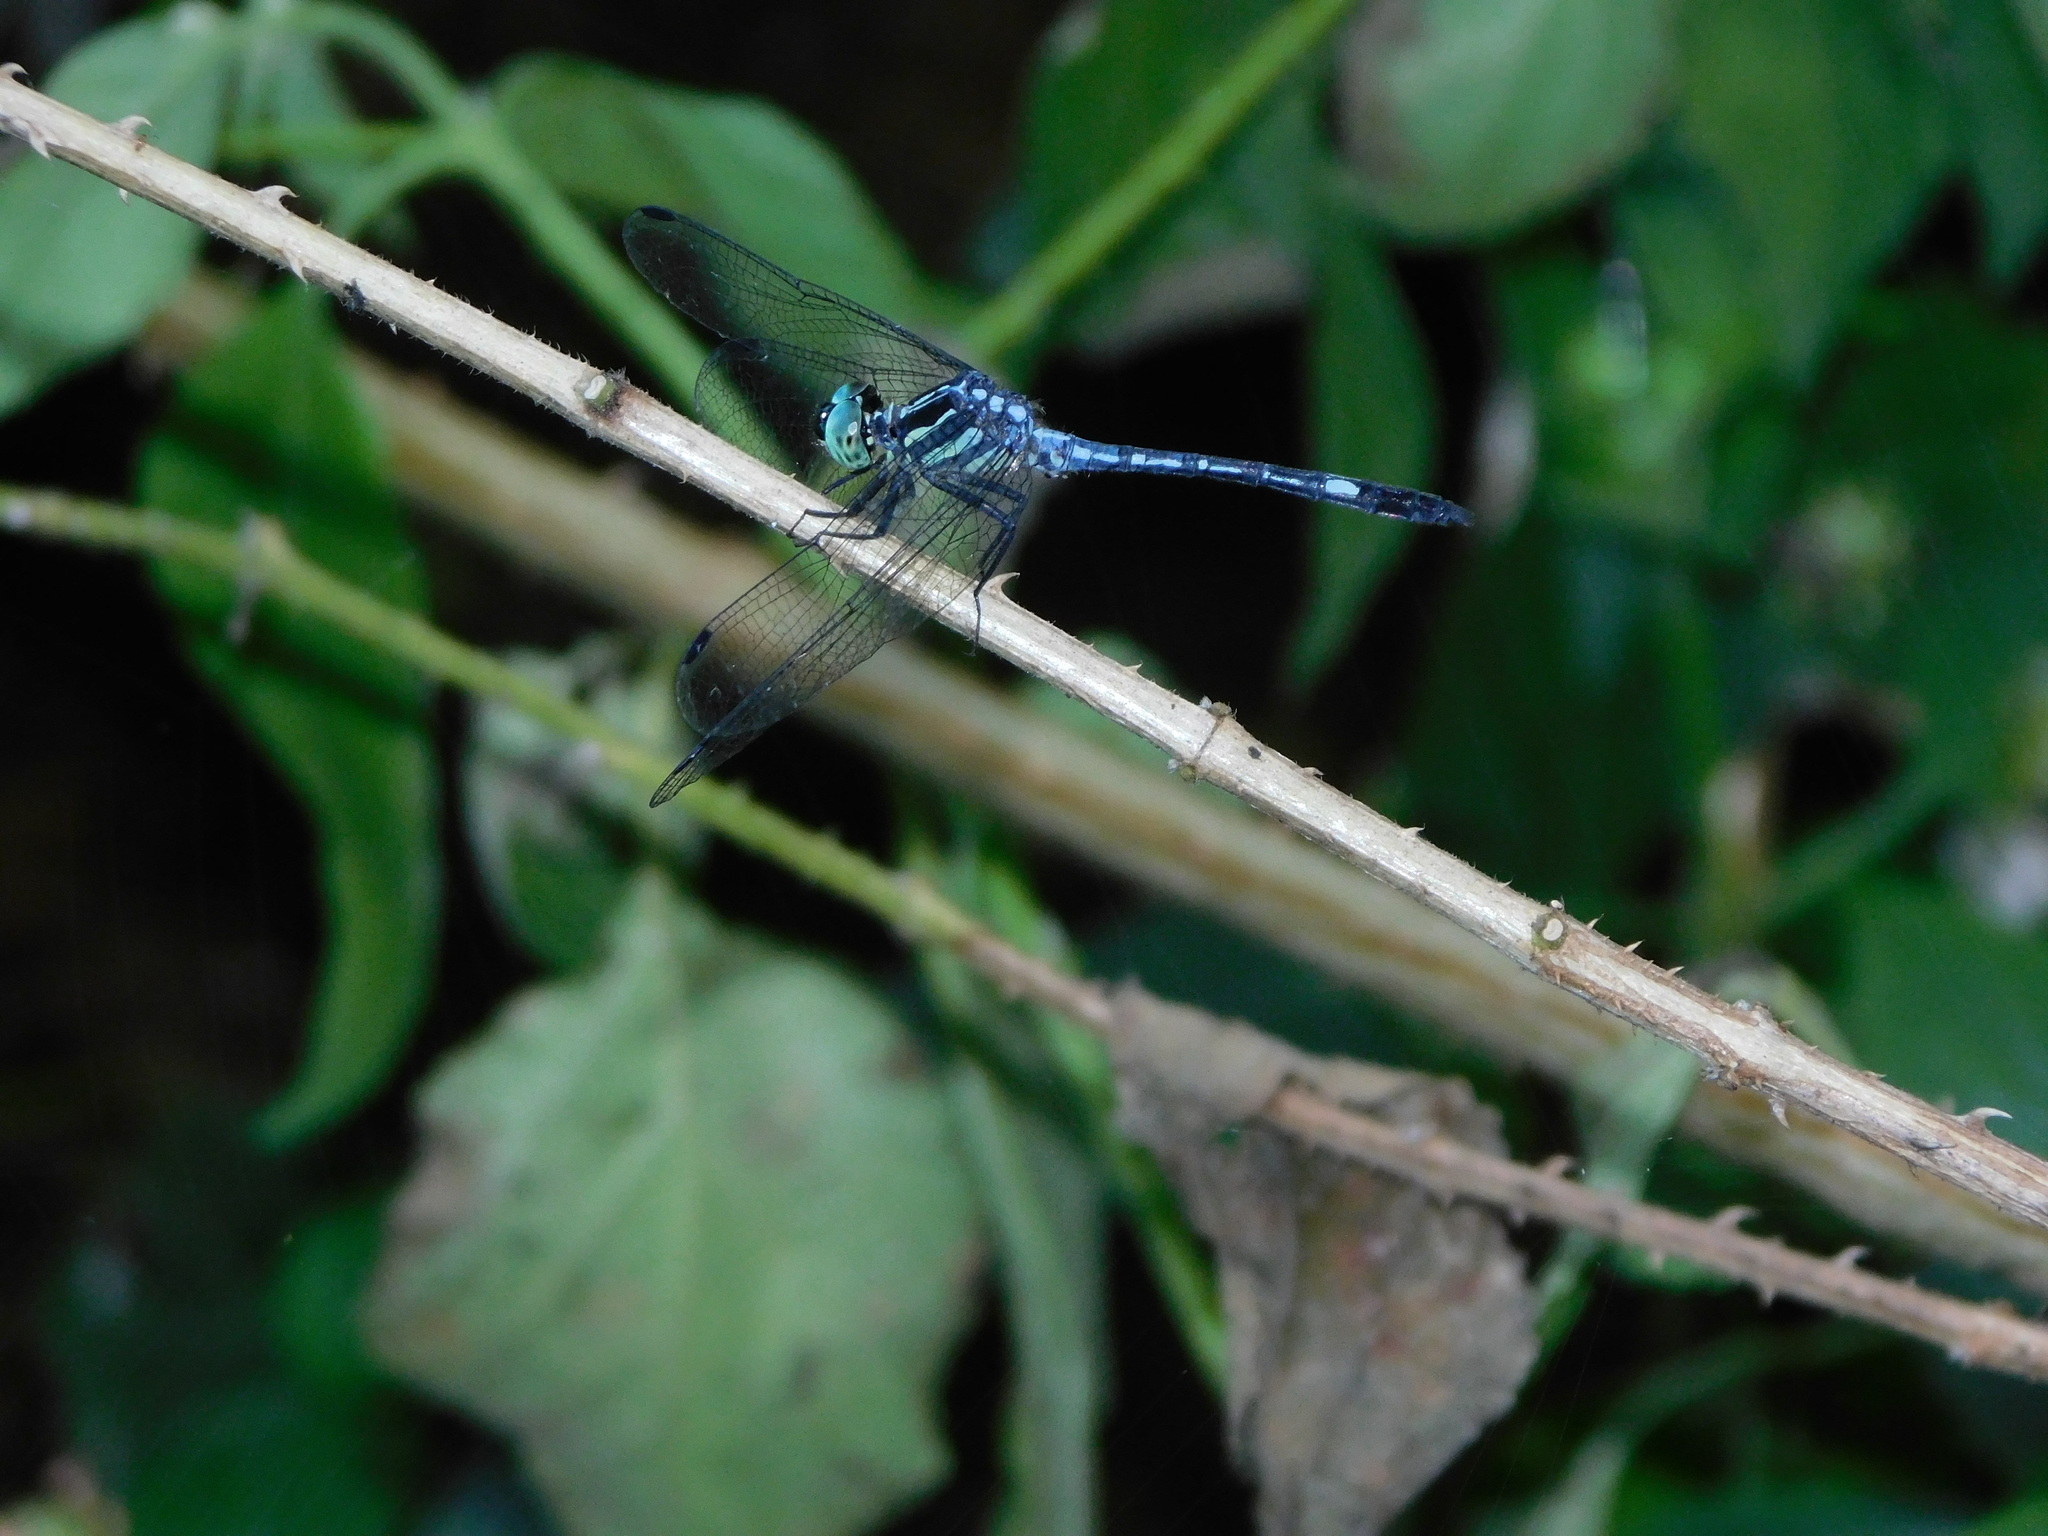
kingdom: Animalia
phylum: Arthropoda
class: Insecta
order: Odonata
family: Libellulidae
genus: Hylaeothemis
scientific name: Hylaeothemis apicalis
